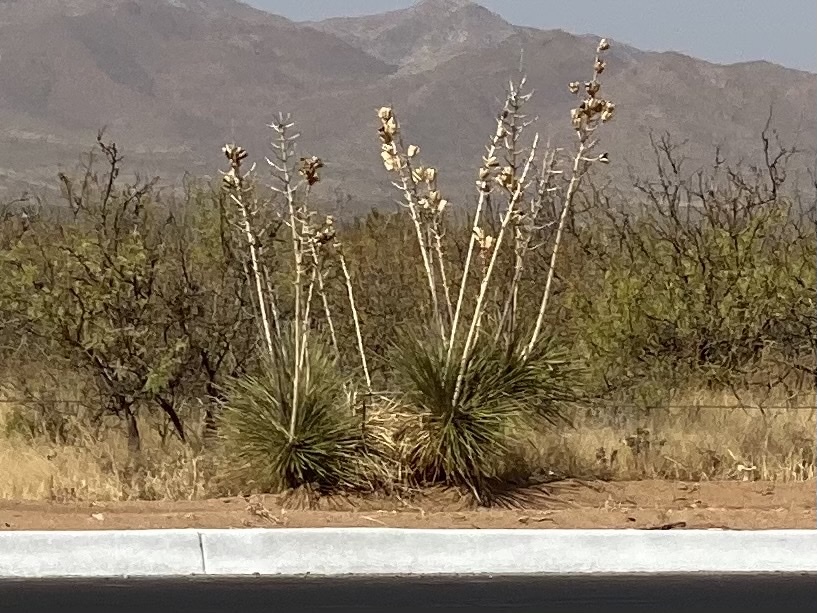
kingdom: Plantae
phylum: Tracheophyta
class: Liliopsida
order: Asparagales
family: Asparagaceae
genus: Yucca
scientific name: Yucca elata
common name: Palmella
